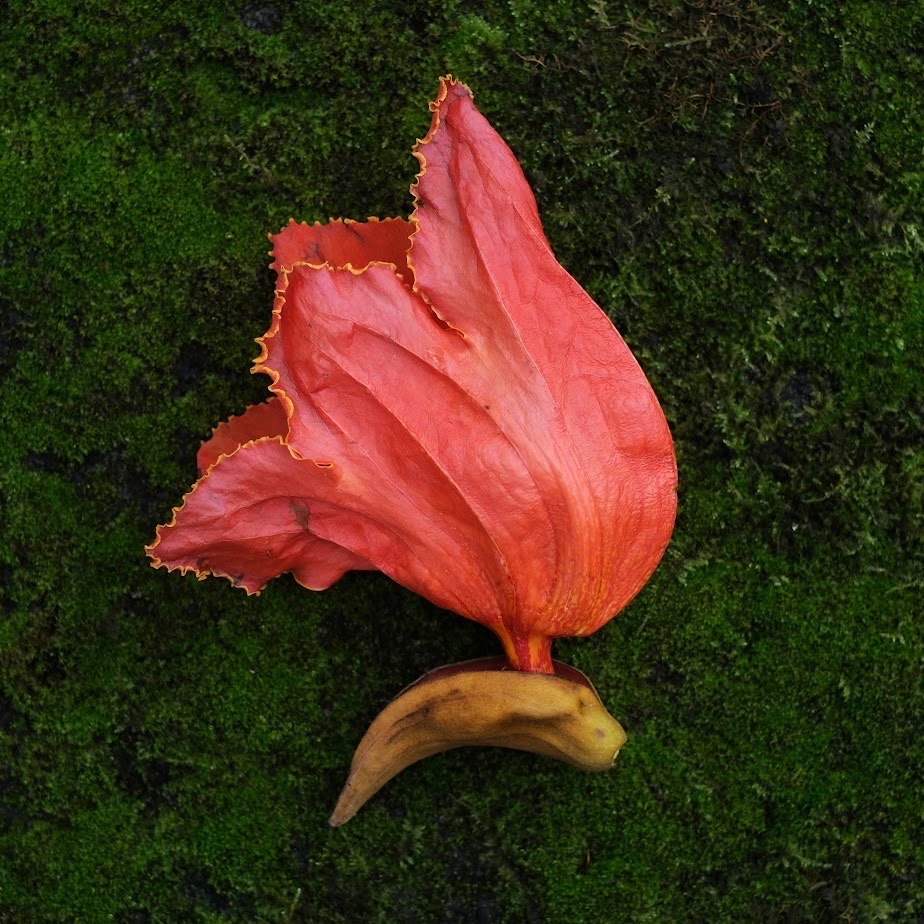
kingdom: Plantae
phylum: Tracheophyta
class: Magnoliopsida
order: Lamiales
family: Bignoniaceae
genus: Spathodea
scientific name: Spathodea campanulata
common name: African tuliptree
